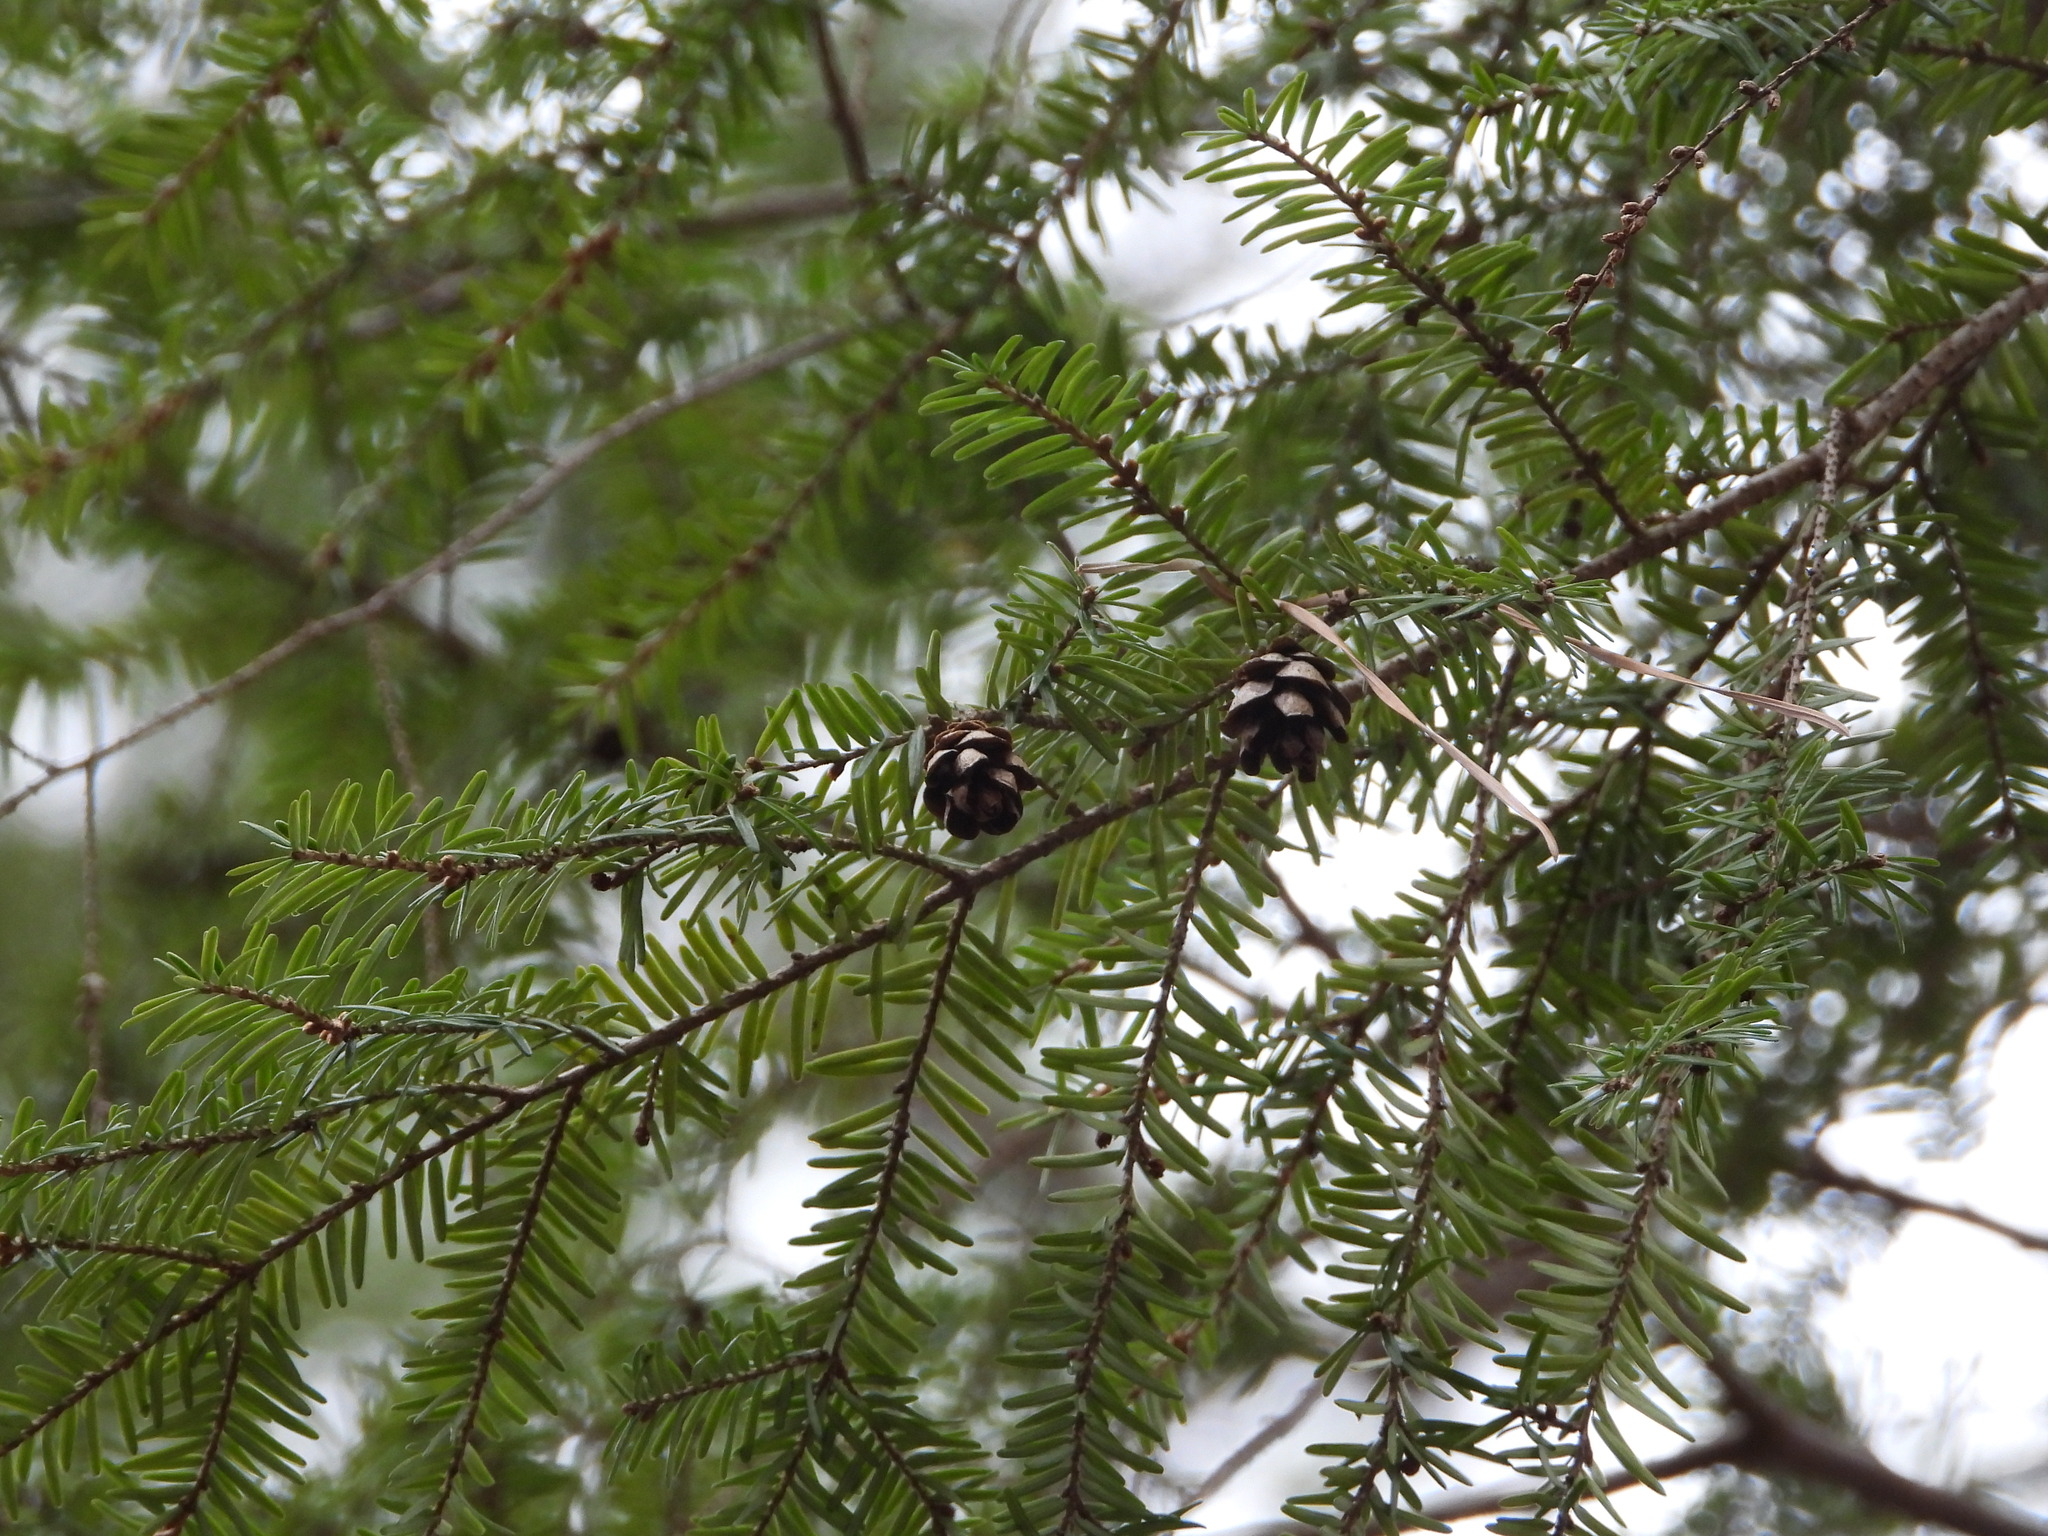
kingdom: Plantae
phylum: Tracheophyta
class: Pinopsida
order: Pinales
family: Pinaceae
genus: Tsuga
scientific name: Tsuga canadensis
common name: Eastern hemlock
